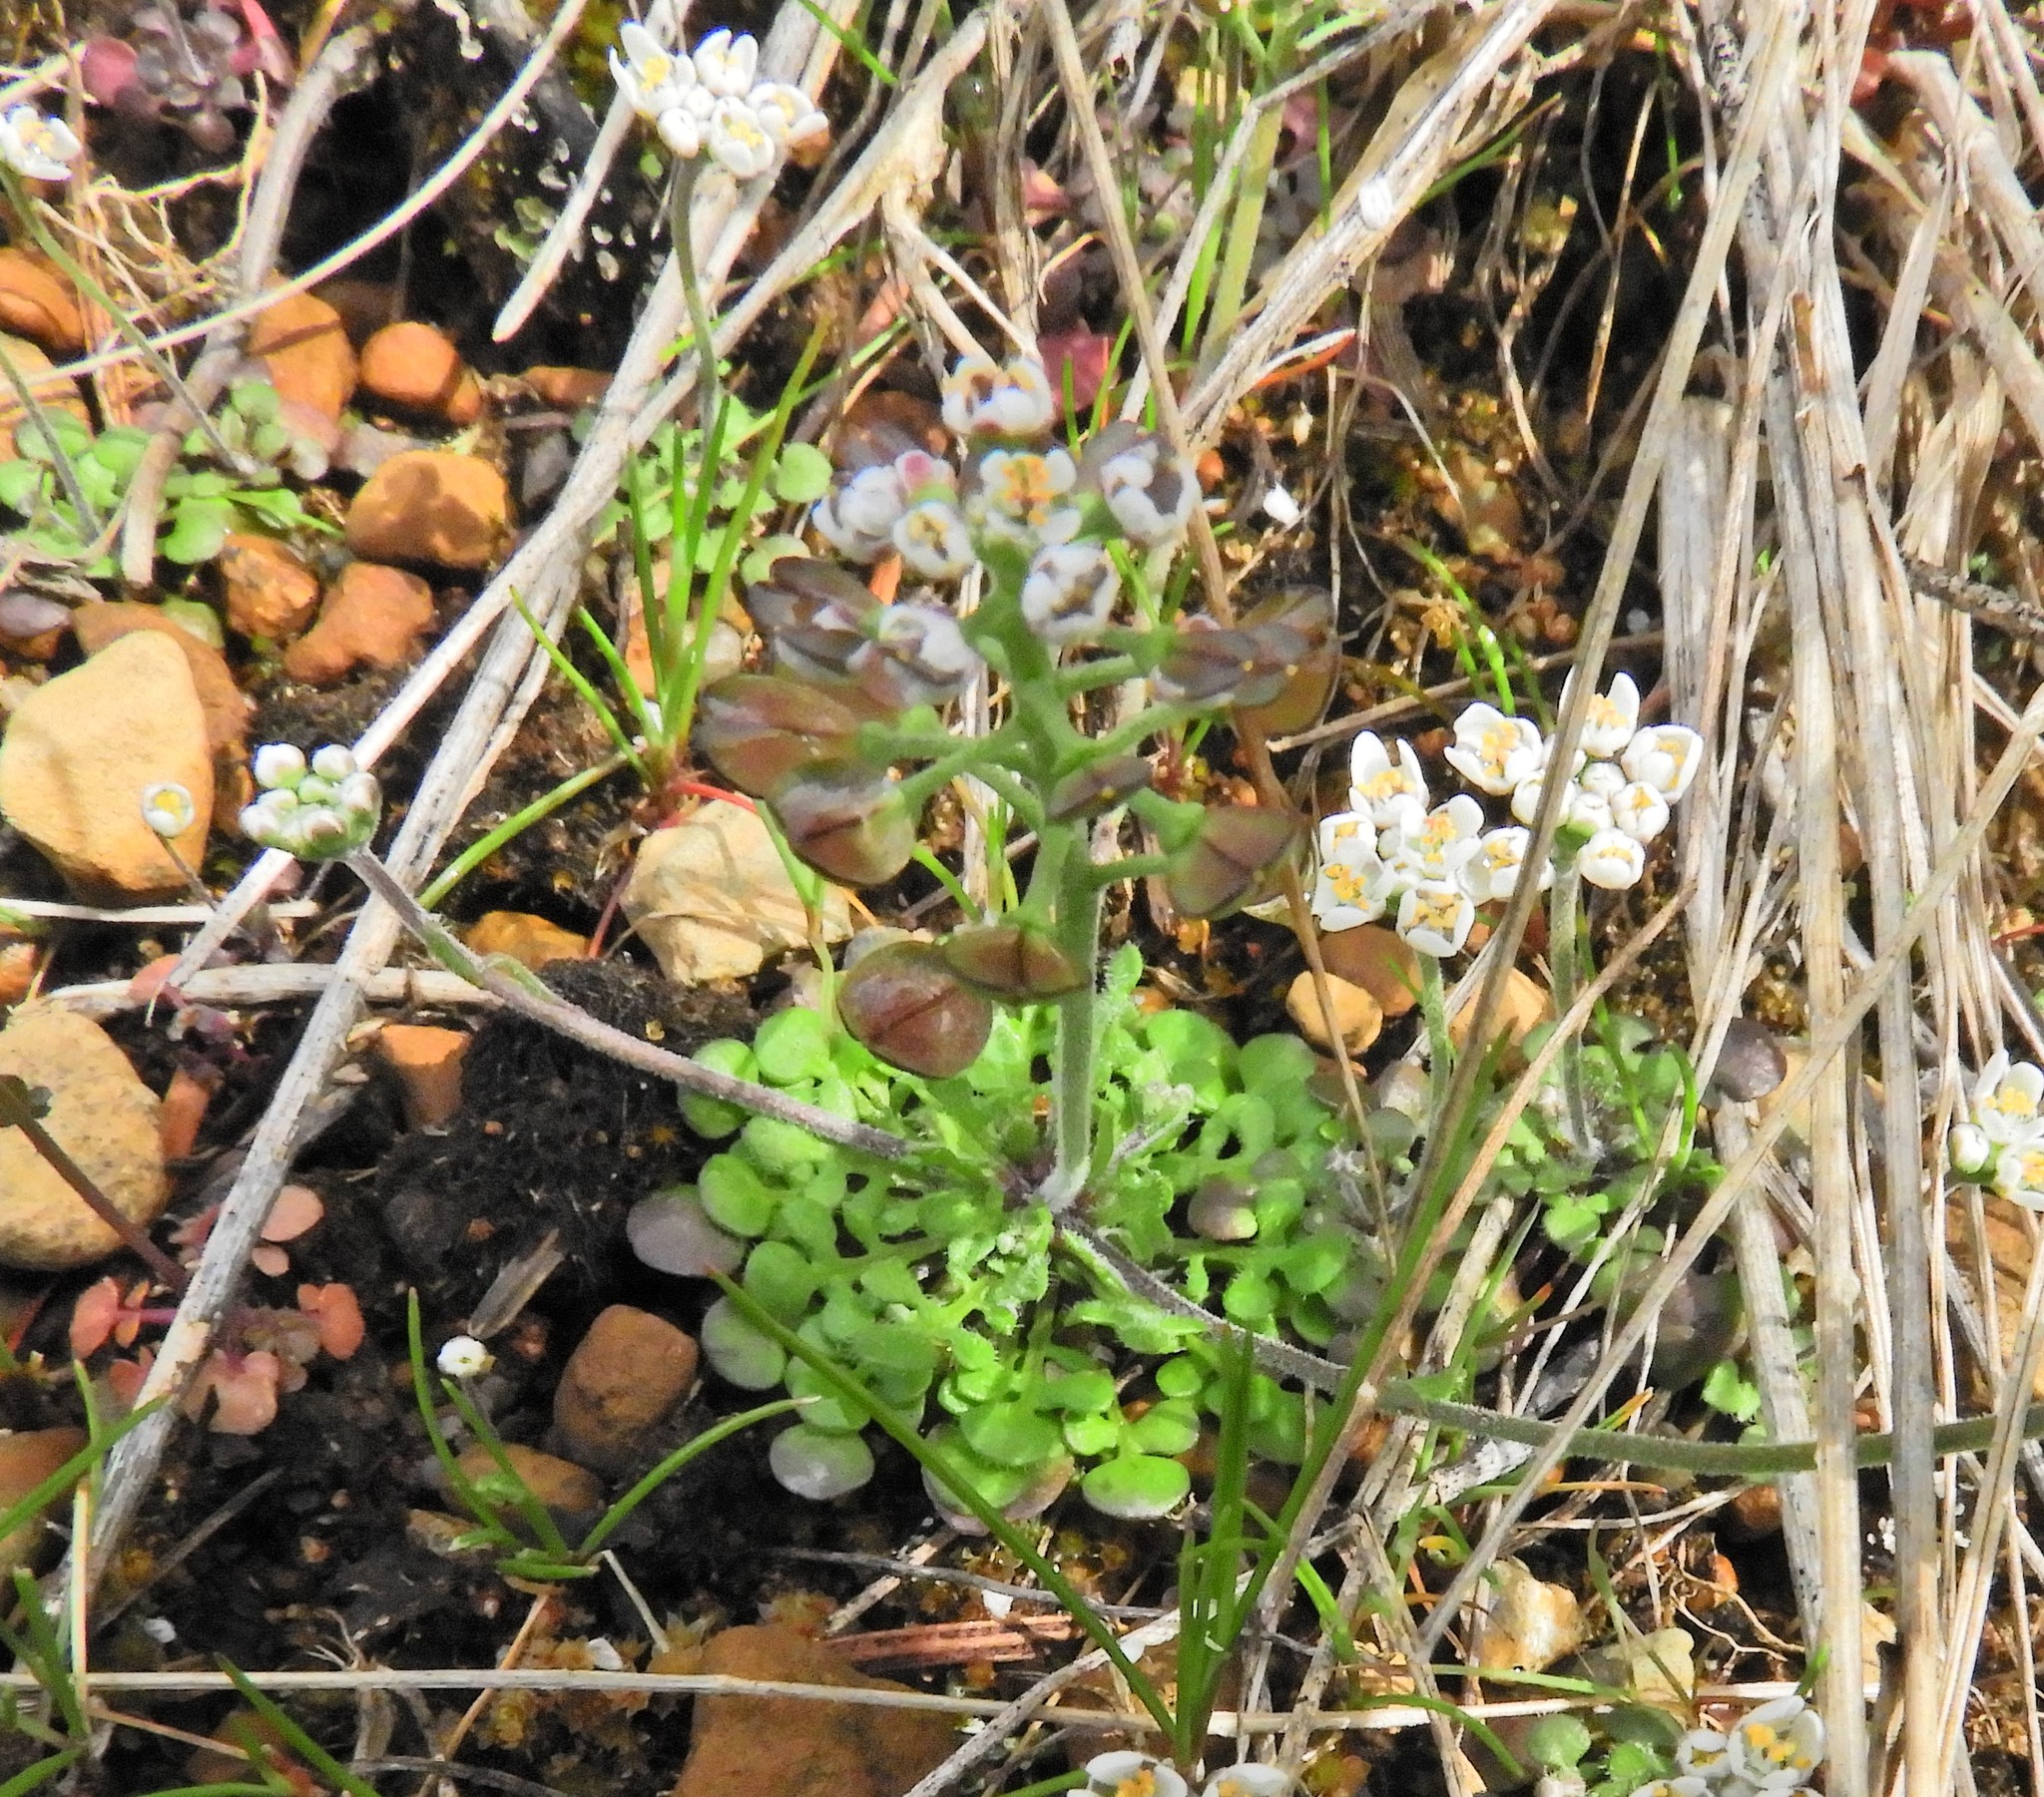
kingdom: Plantae
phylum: Tracheophyta
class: Magnoliopsida
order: Brassicales
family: Brassicaceae
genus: Teesdalia
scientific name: Teesdalia nudicaulis
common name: Shepherd's cress
